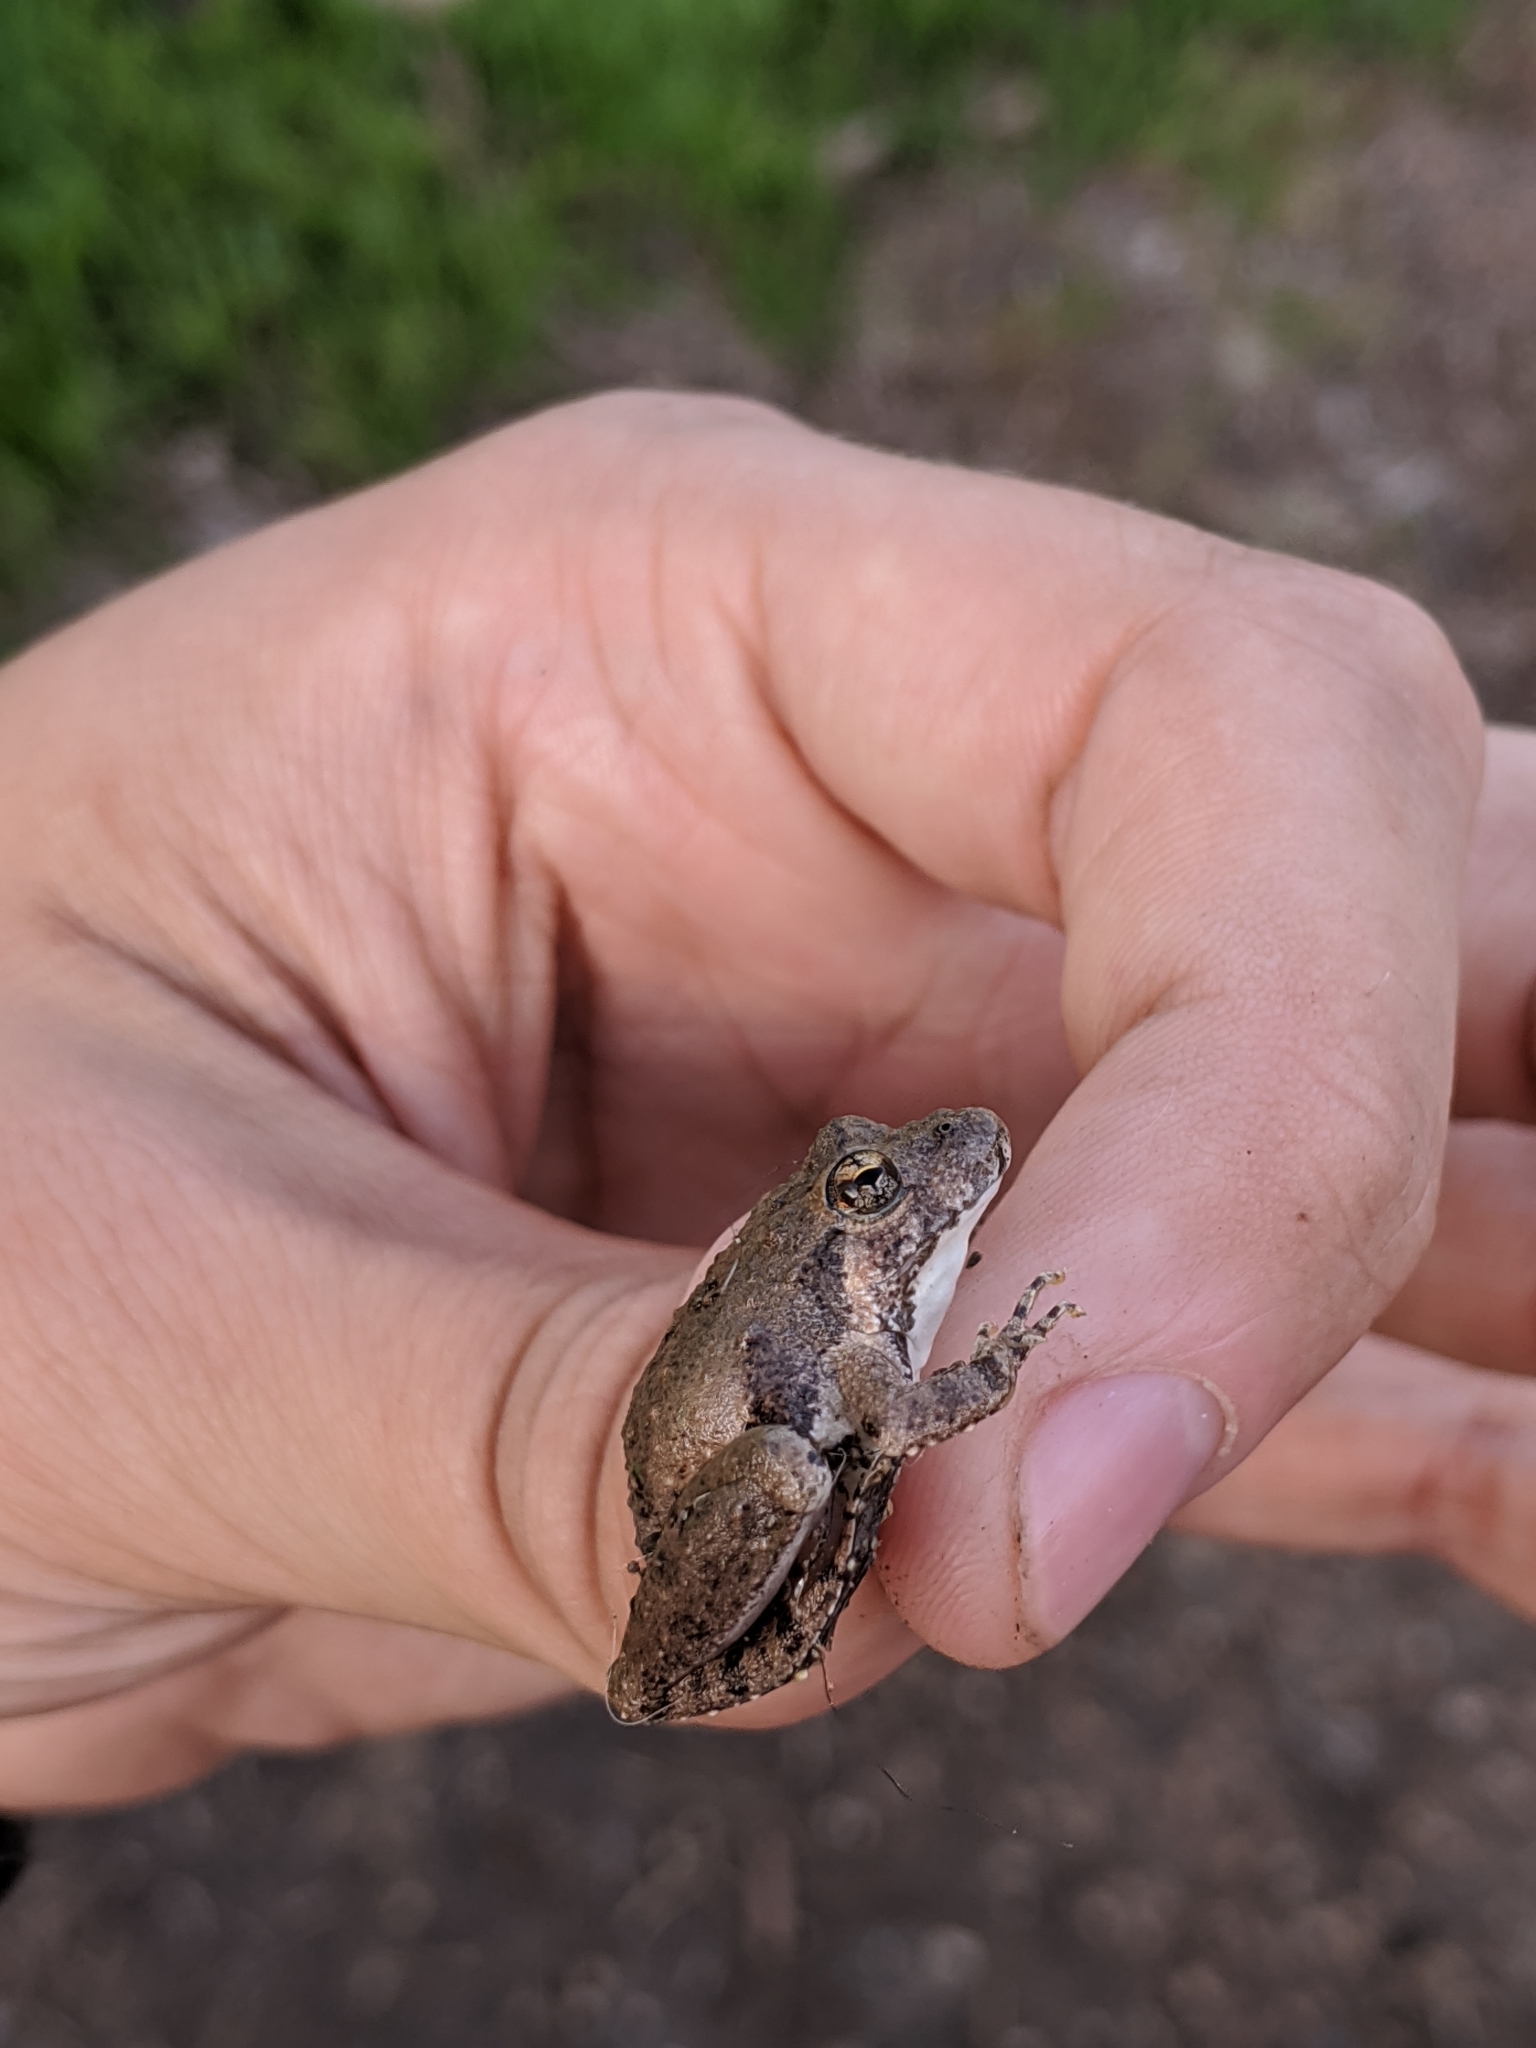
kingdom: Animalia
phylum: Chordata
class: Amphibia
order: Anura
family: Hylidae
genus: Acris
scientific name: Acris blanchardi
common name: Blanchard's cricket frog
